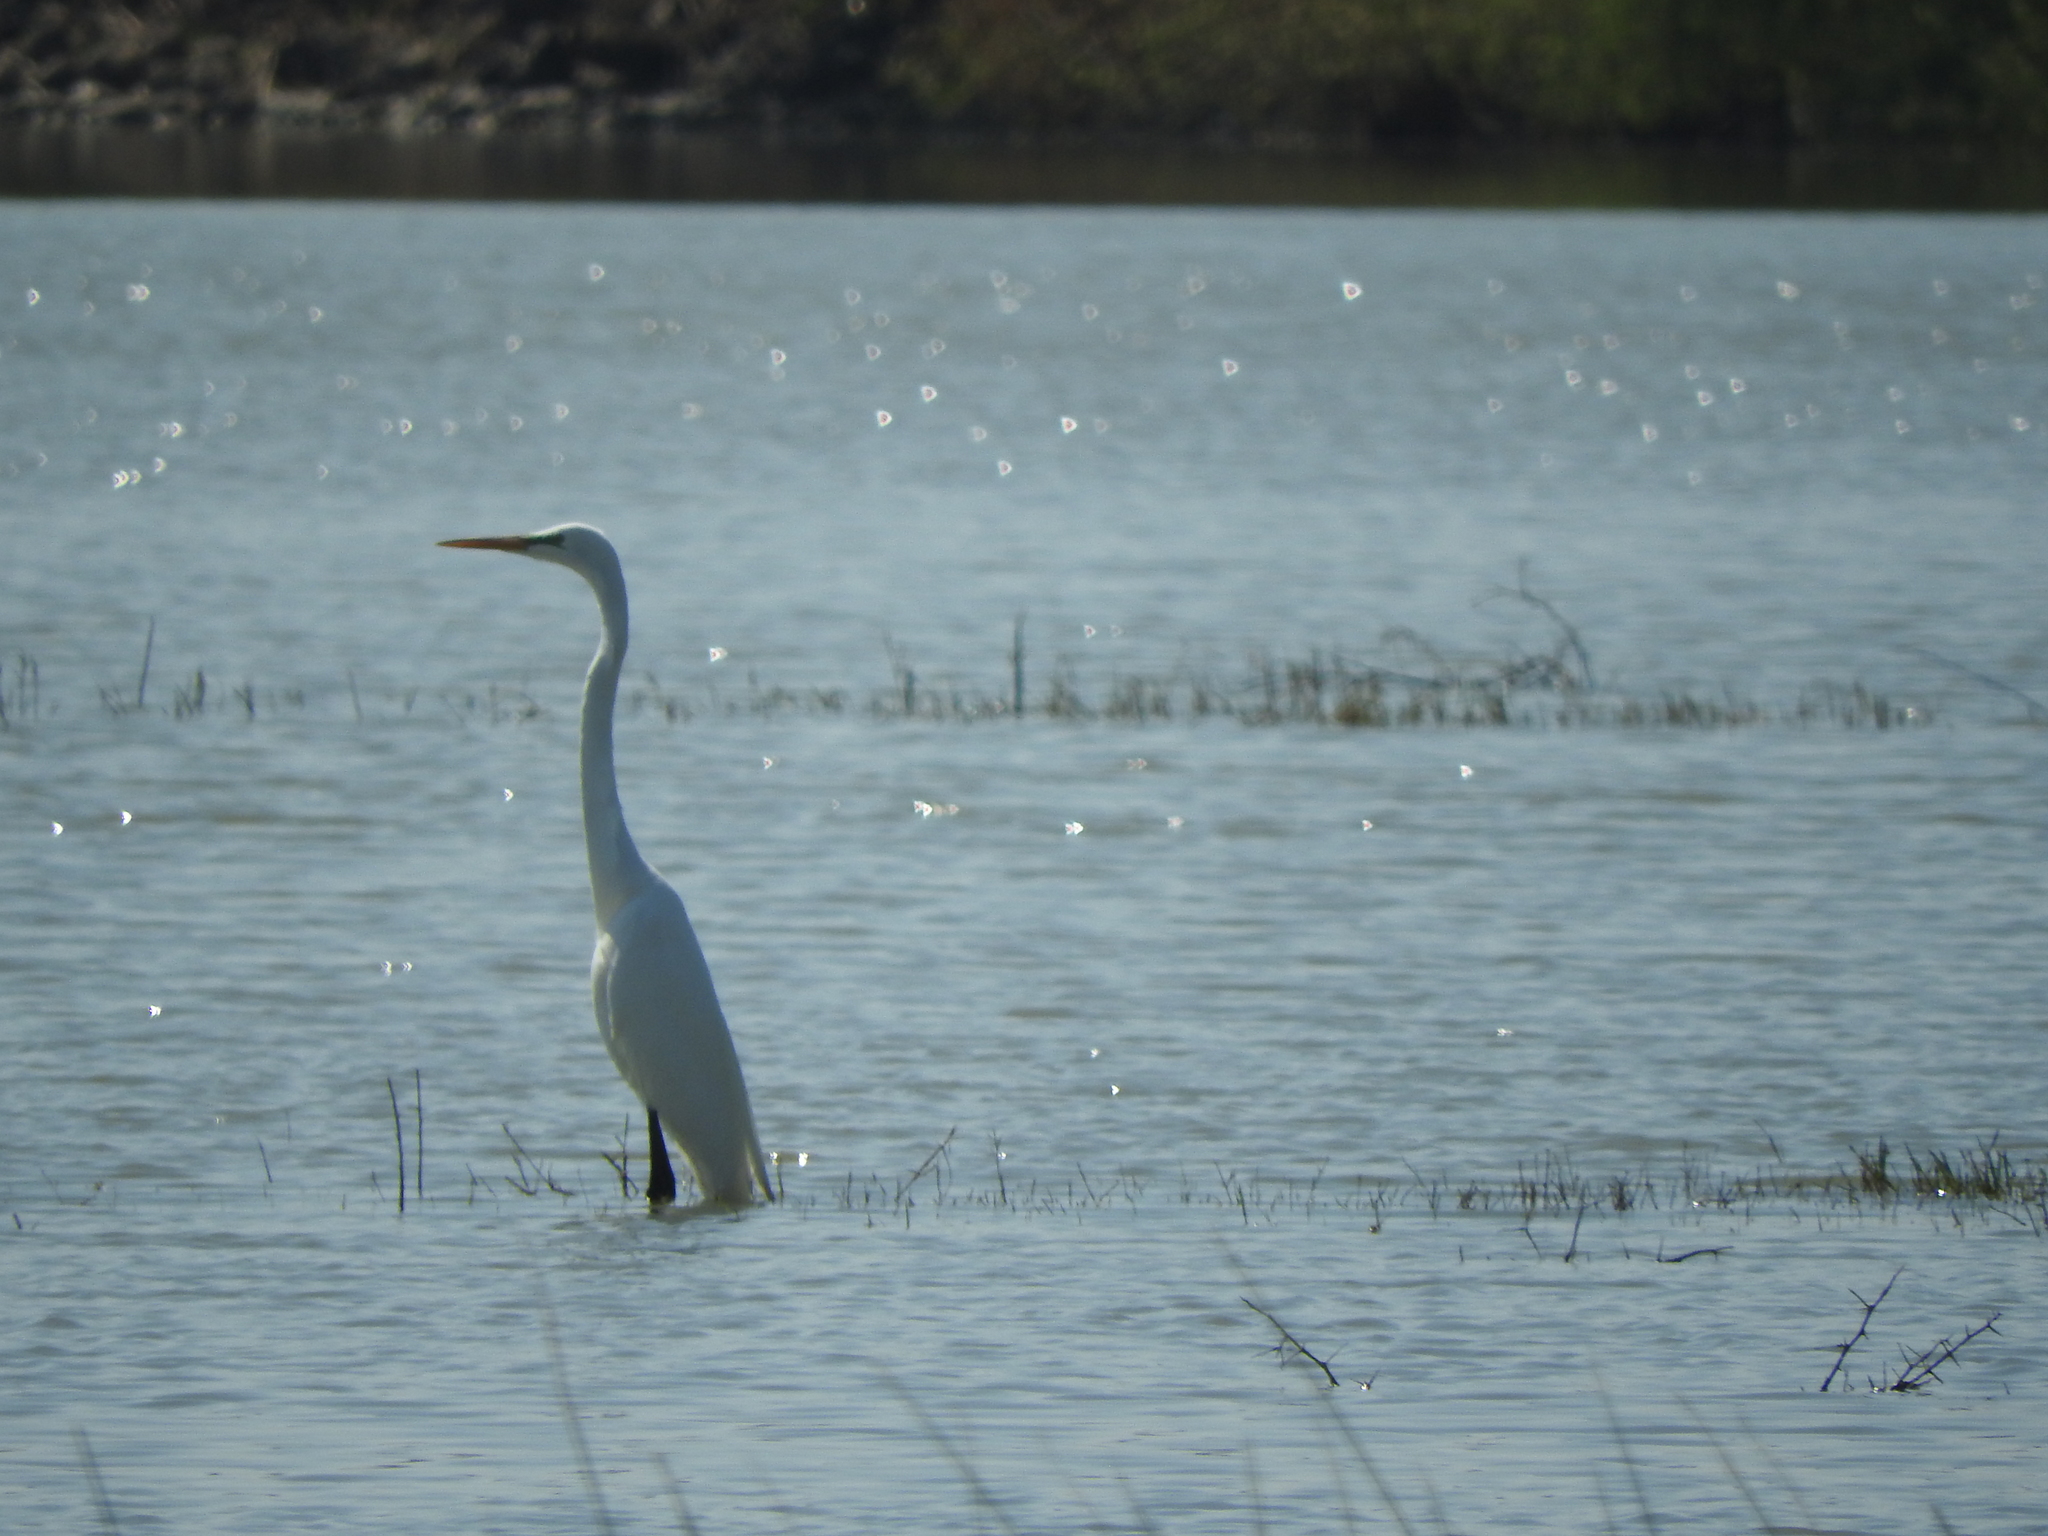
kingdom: Animalia
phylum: Chordata
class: Aves
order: Pelecaniformes
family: Ardeidae
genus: Ardea
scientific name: Ardea alba
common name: Great egret
